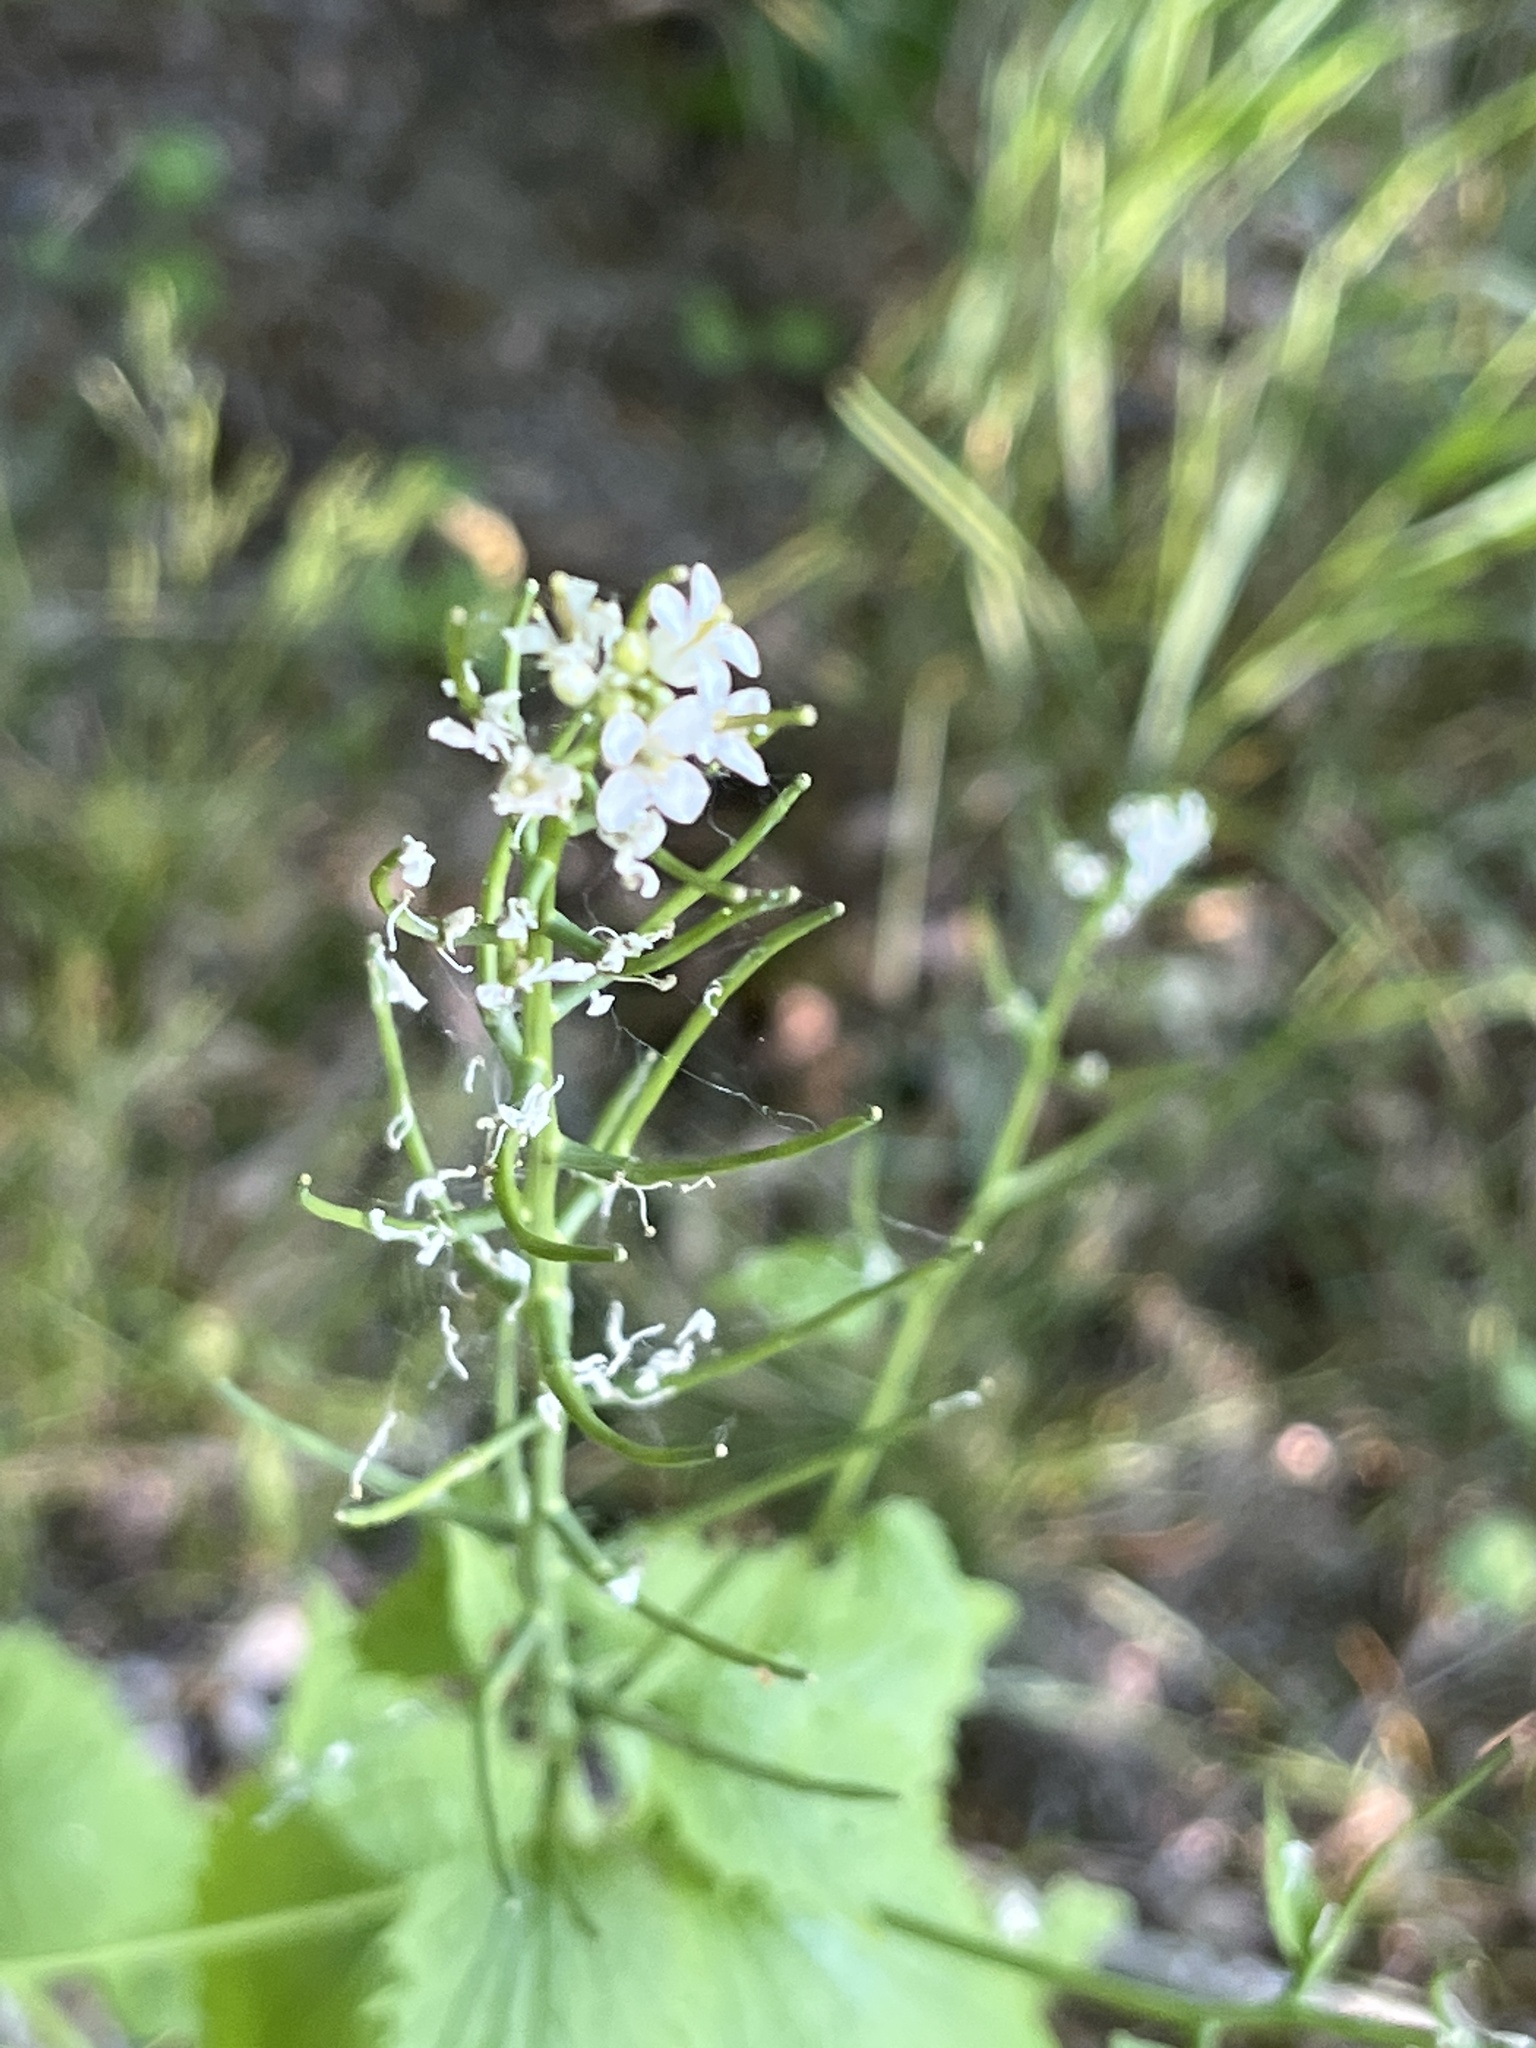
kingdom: Plantae
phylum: Tracheophyta
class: Magnoliopsida
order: Brassicales
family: Brassicaceae
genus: Alliaria
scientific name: Alliaria petiolata
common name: Garlic mustard
